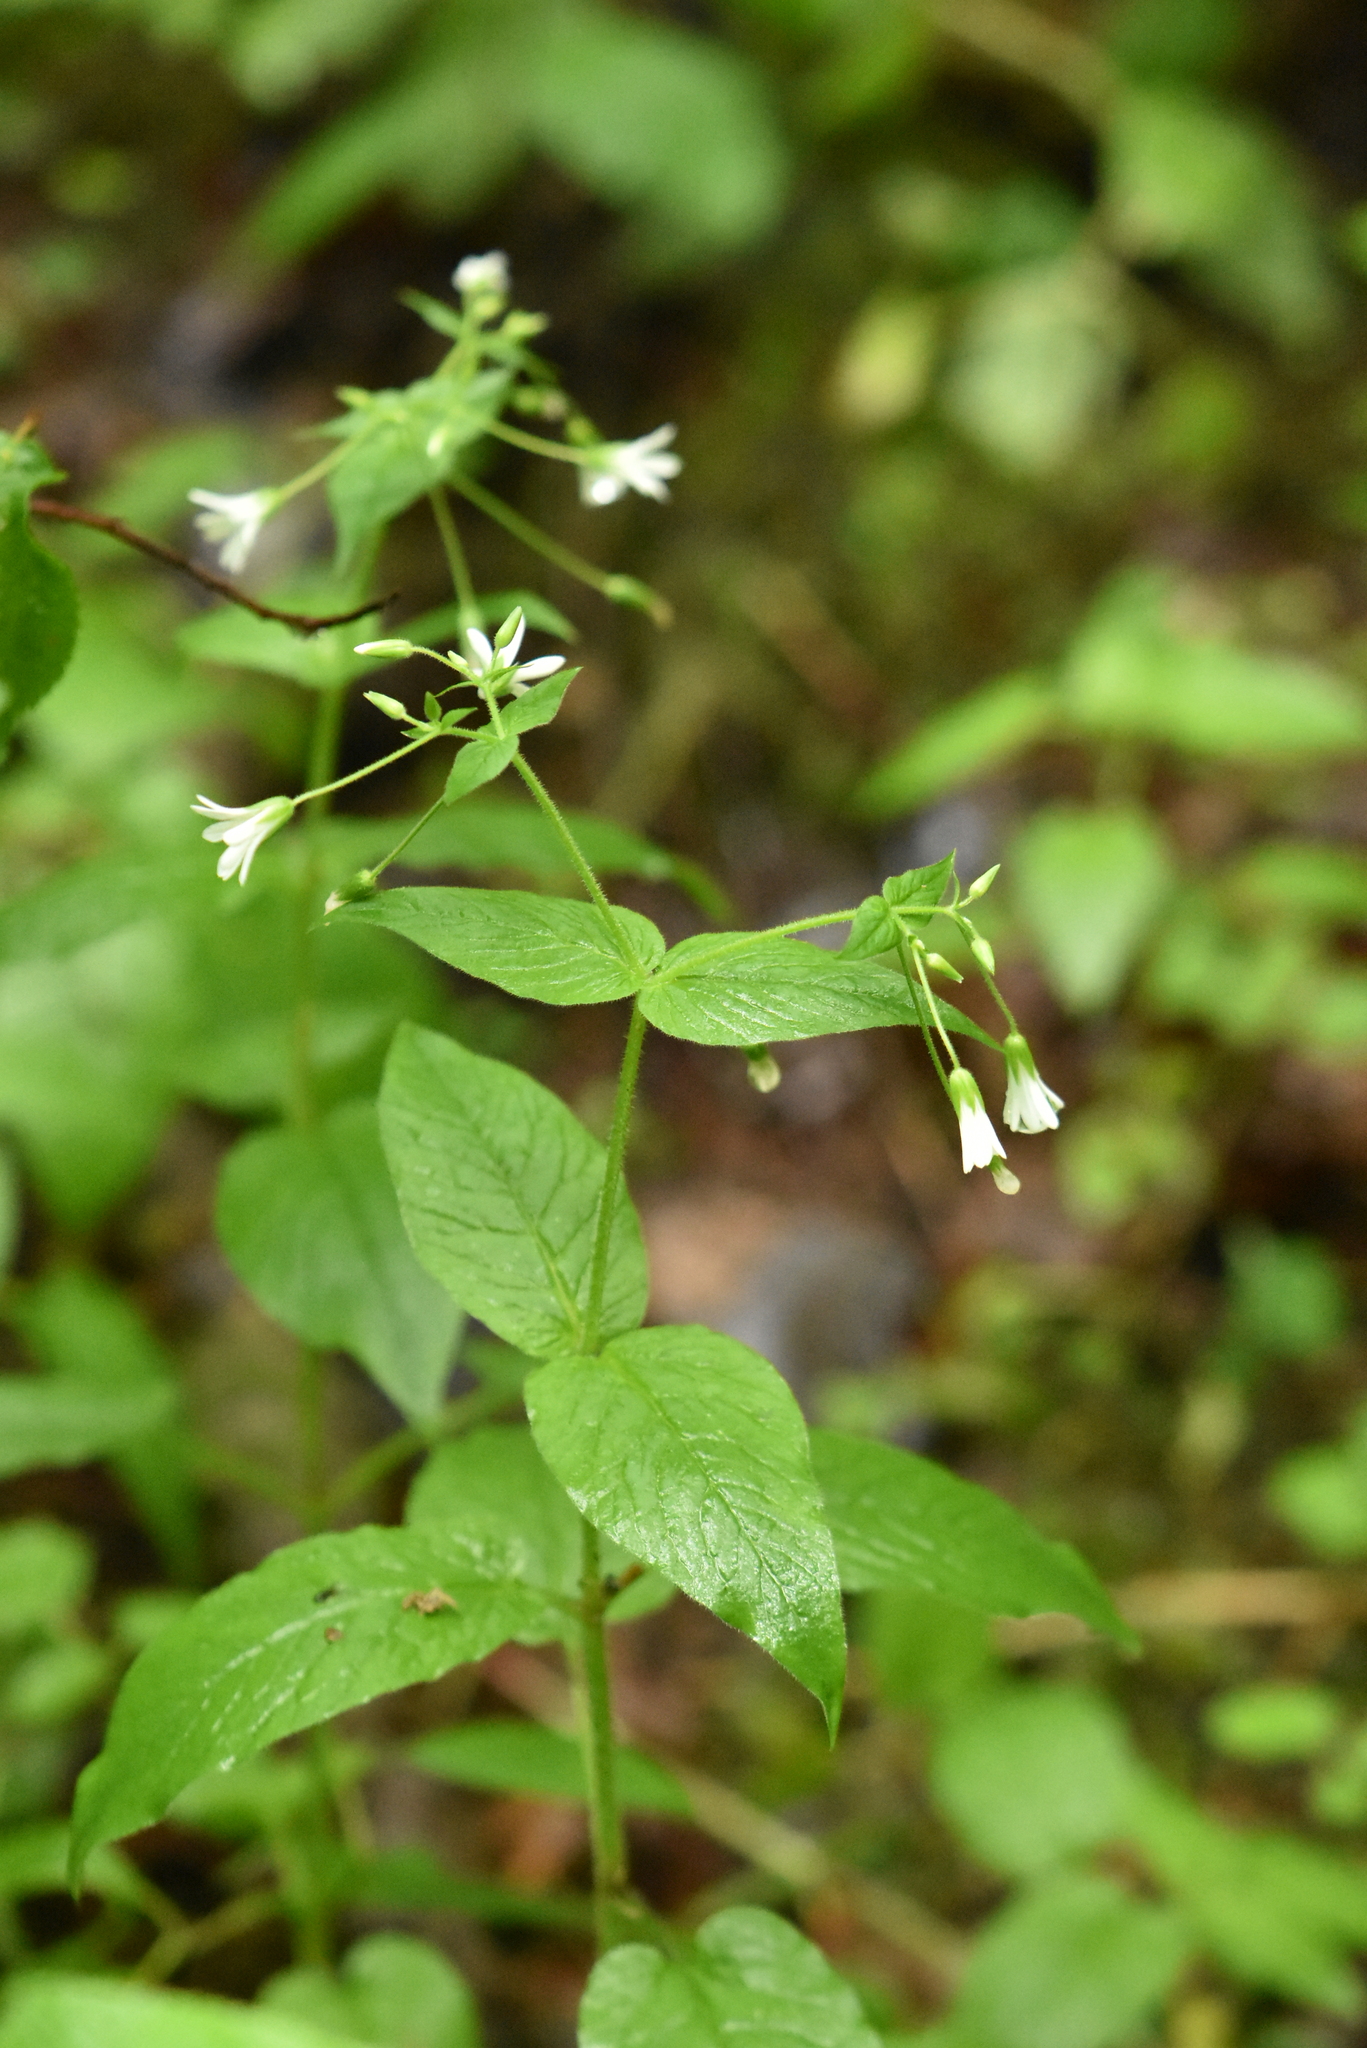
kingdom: Plantae
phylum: Tracheophyta
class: Magnoliopsida
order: Caryophyllales
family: Caryophyllaceae
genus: Stellaria
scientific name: Stellaria nemorum
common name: Wood stitchwort
